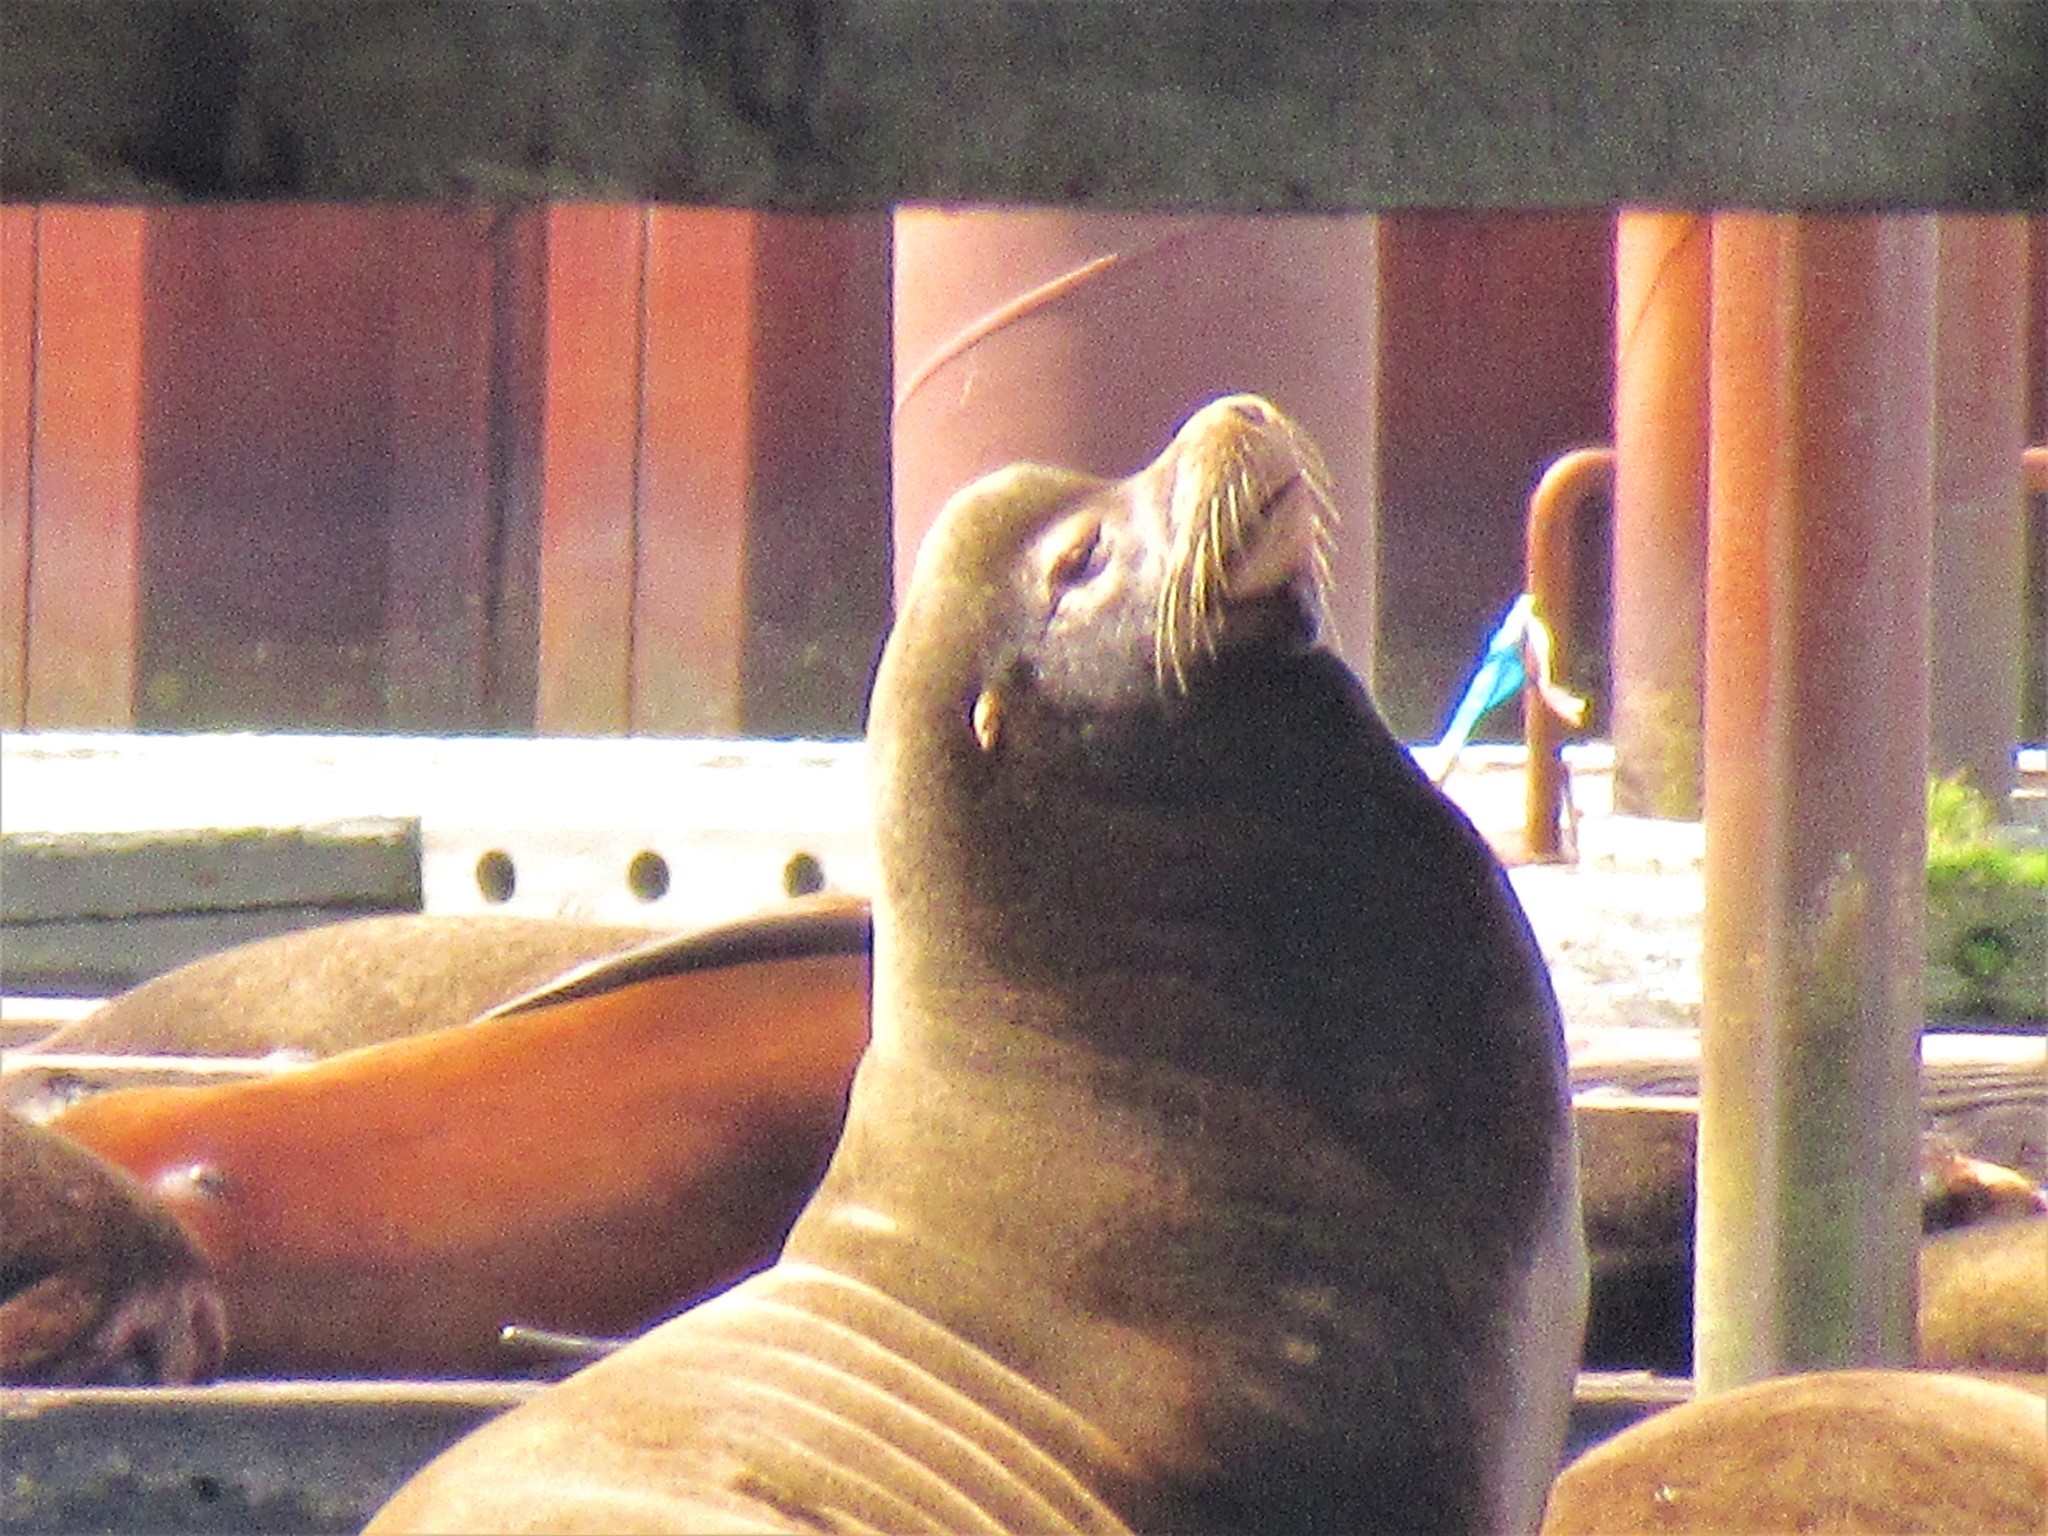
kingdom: Animalia
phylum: Chordata
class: Mammalia
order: Carnivora
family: Otariidae
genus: Zalophus
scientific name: Zalophus californianus
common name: California sea lion
